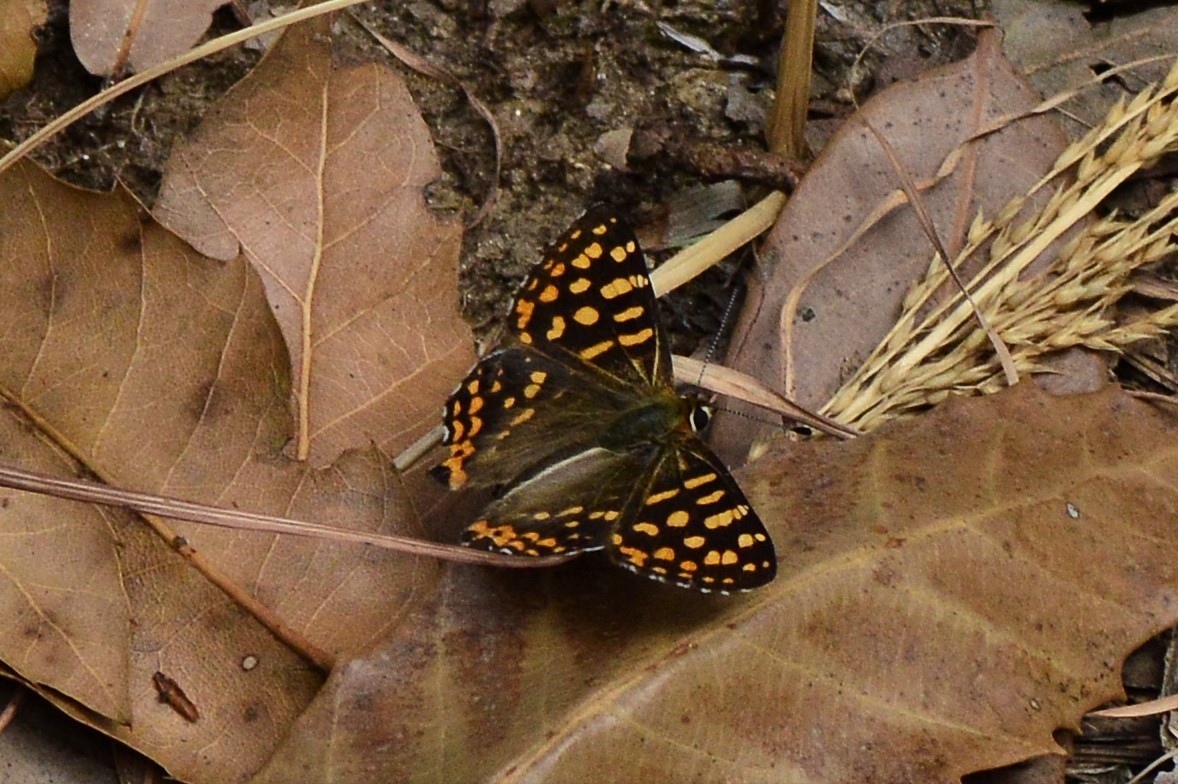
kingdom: Animalia
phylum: Arthropoda
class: Insecta
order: Lepidoptera
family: Lycaenidae
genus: Dodona
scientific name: Dodona durga
